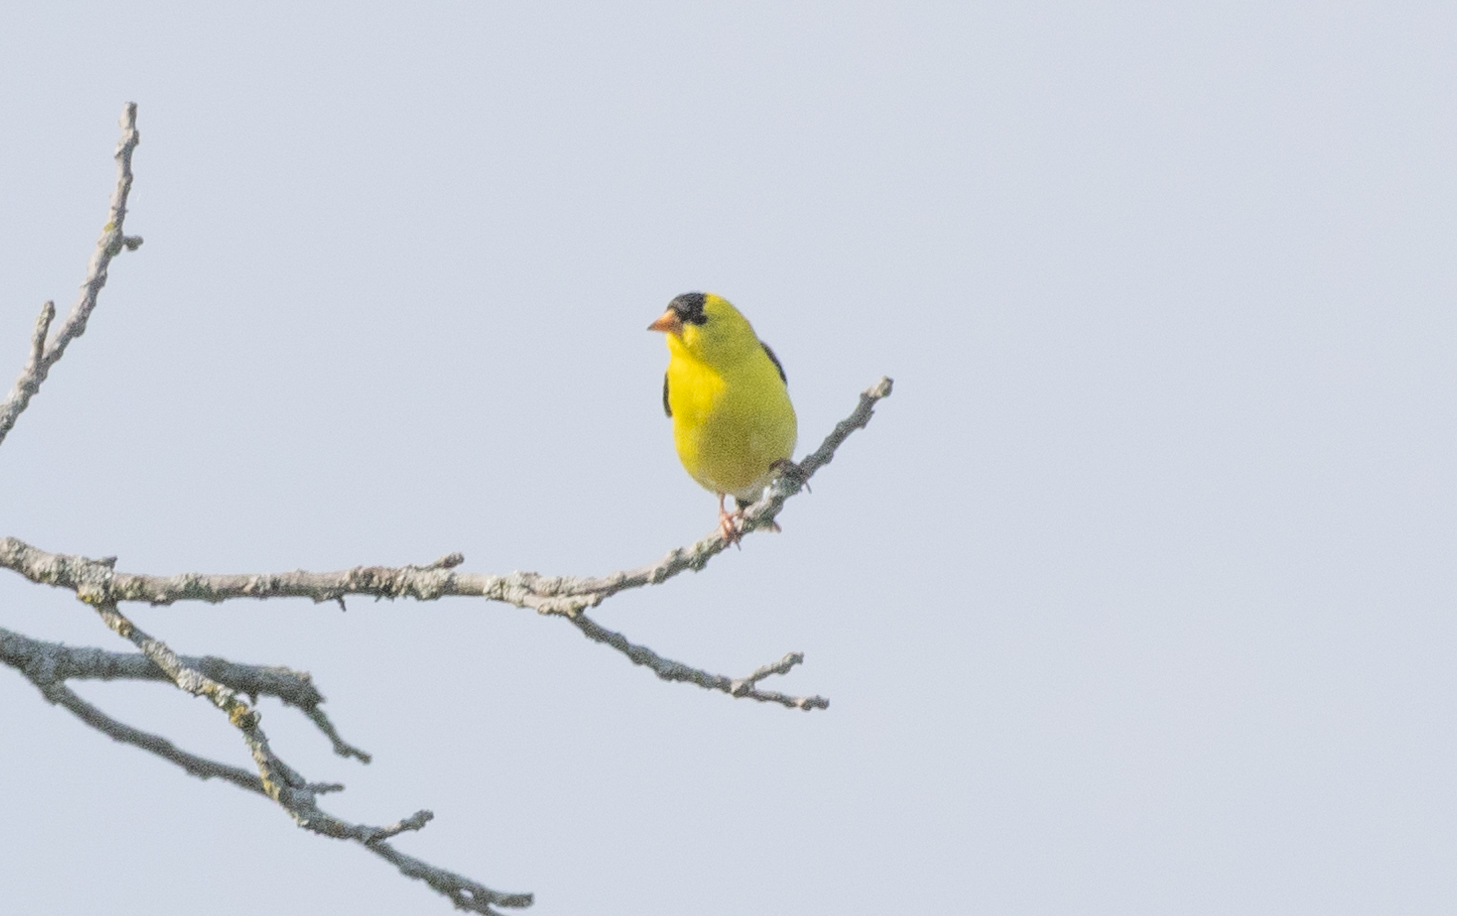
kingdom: Animalia
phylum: Chordata
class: Aves
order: Passeriformes
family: Fringillidae
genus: Spinus
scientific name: Spinus tristis
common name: American goldfinch
